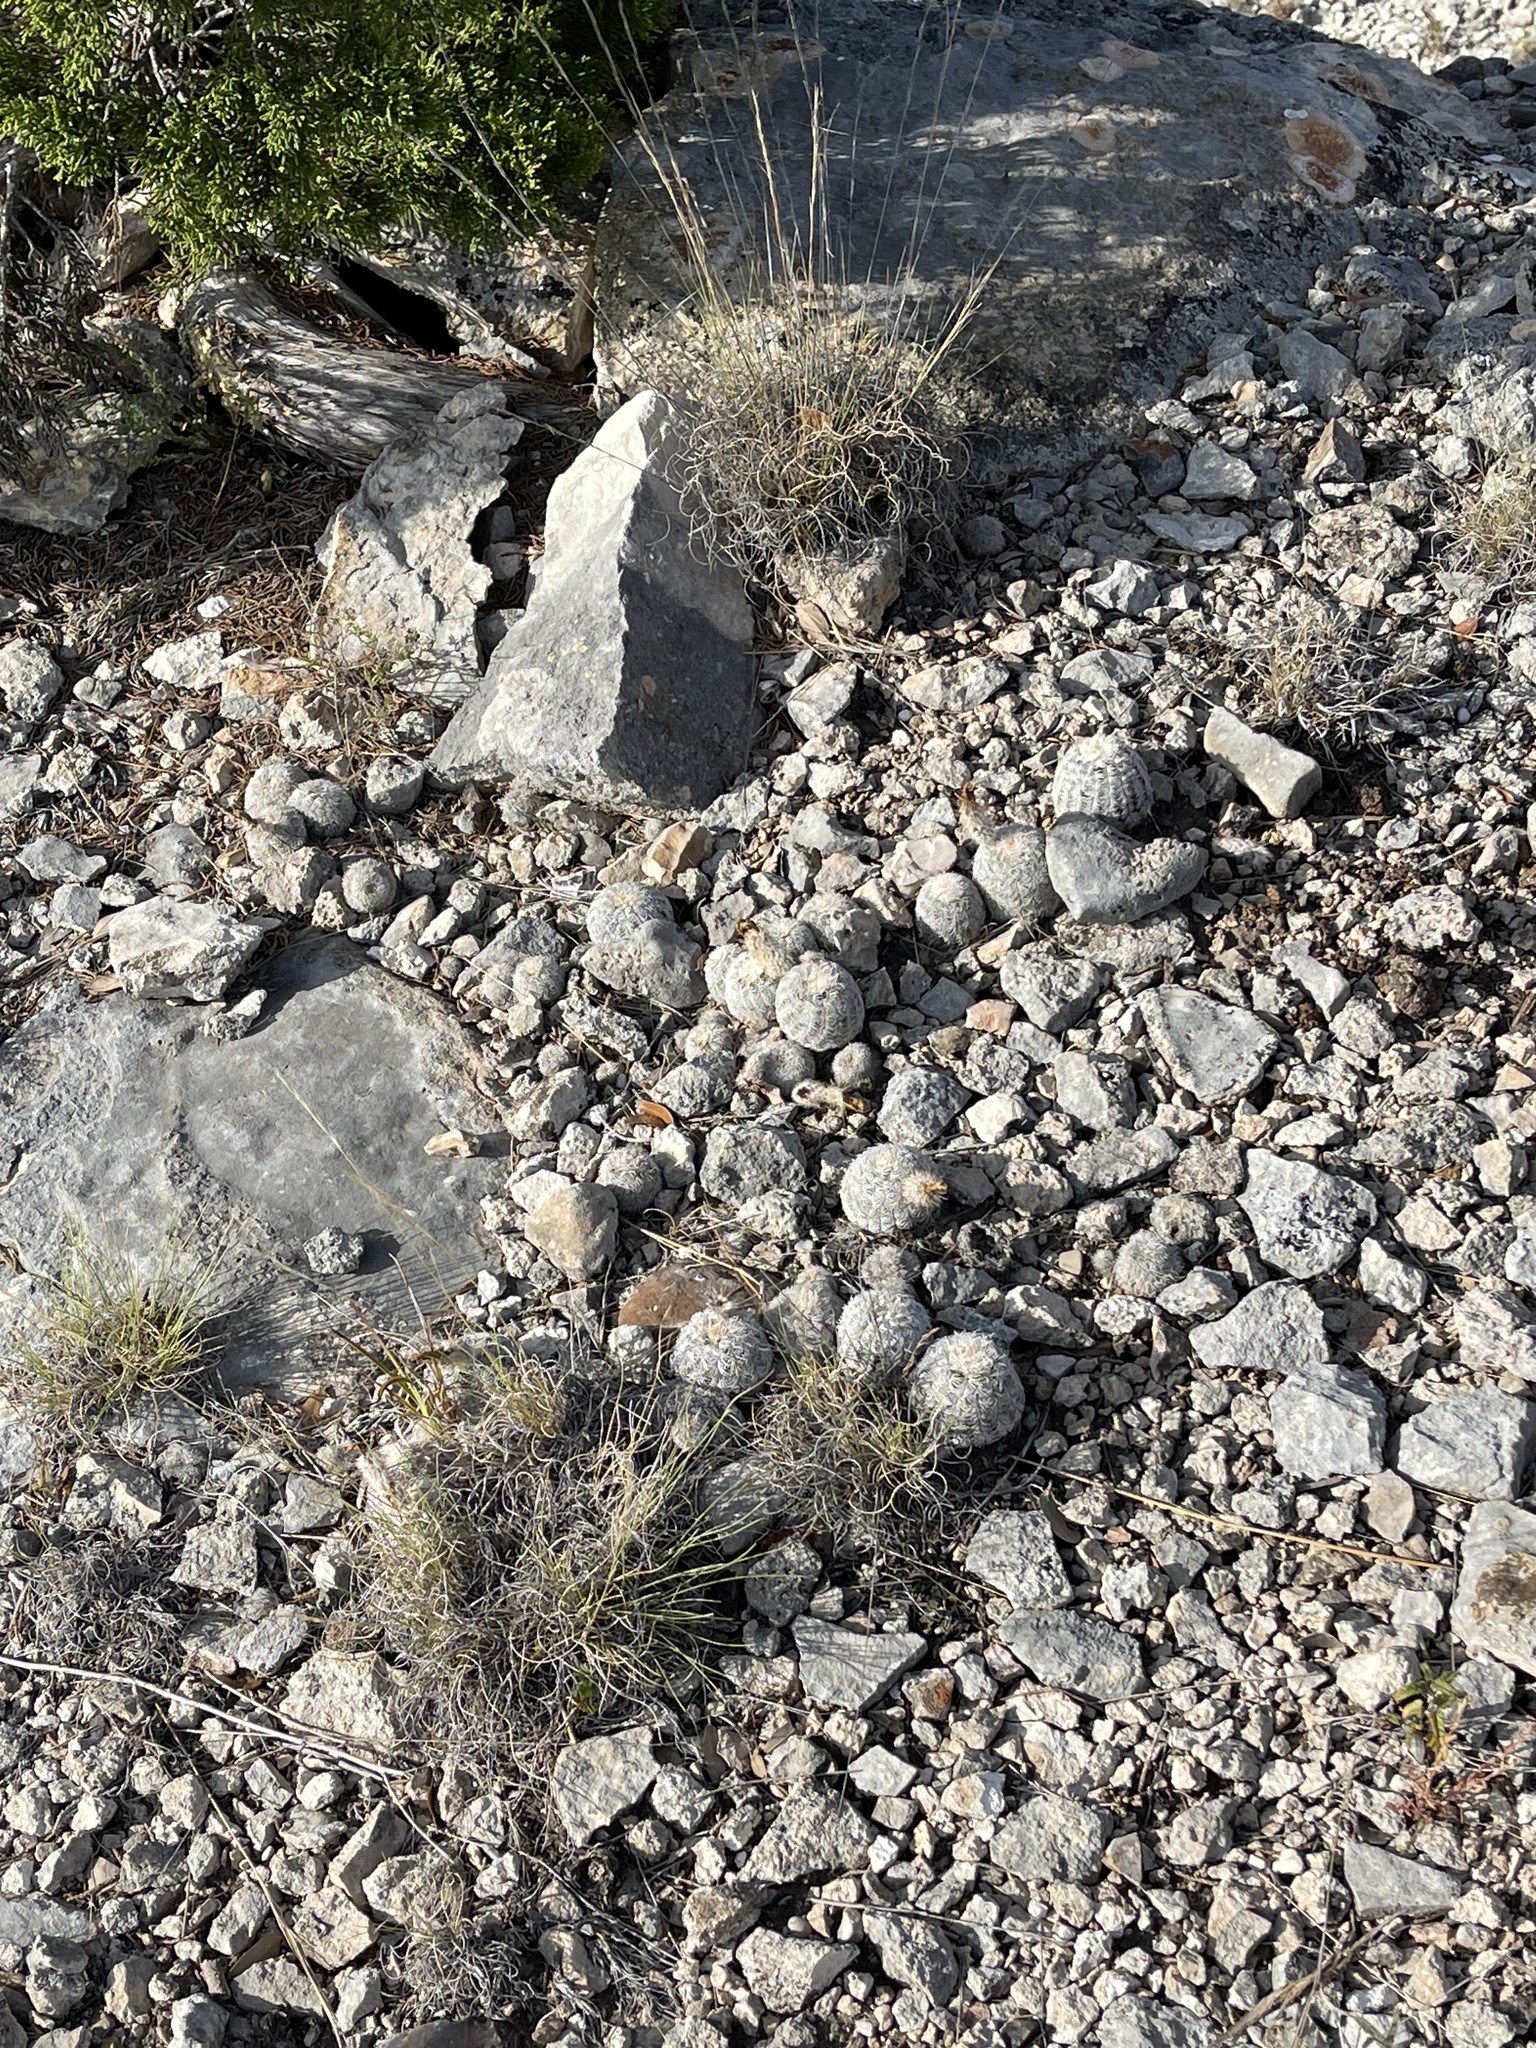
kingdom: Plantae
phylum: Tracheophyta
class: Magnoliopsida
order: Caryophyllales
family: Cactaceae
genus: Echinocereus
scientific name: Echinocereus reichenbachii
